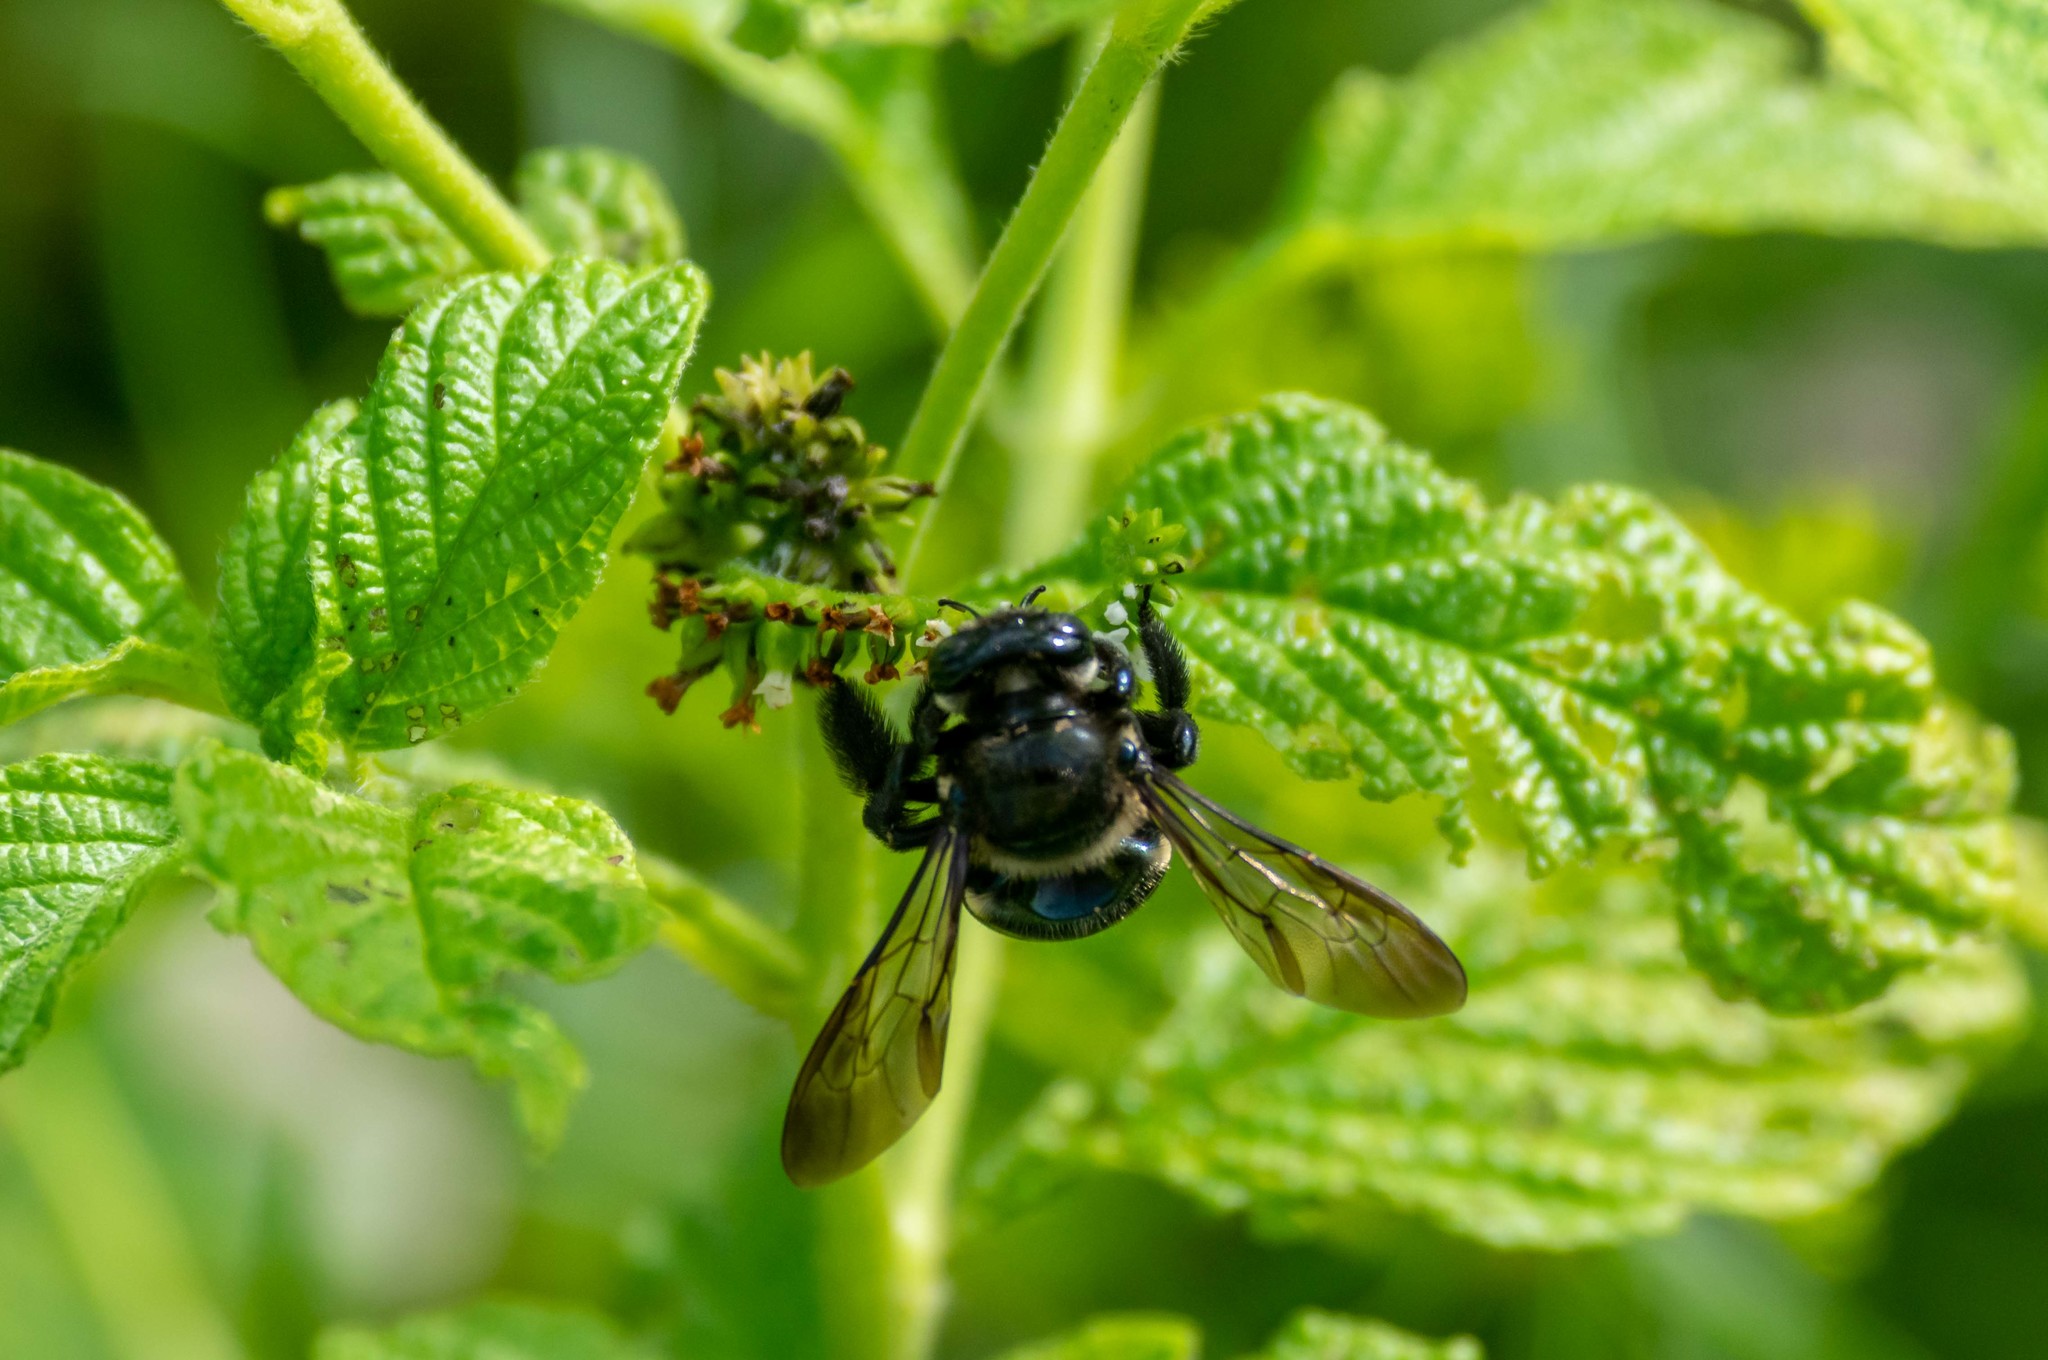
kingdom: Animalia
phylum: Arthropoda
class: Insecta
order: Hymenoptera
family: Apidae
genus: Xylocopa
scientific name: Xylocopa micans
